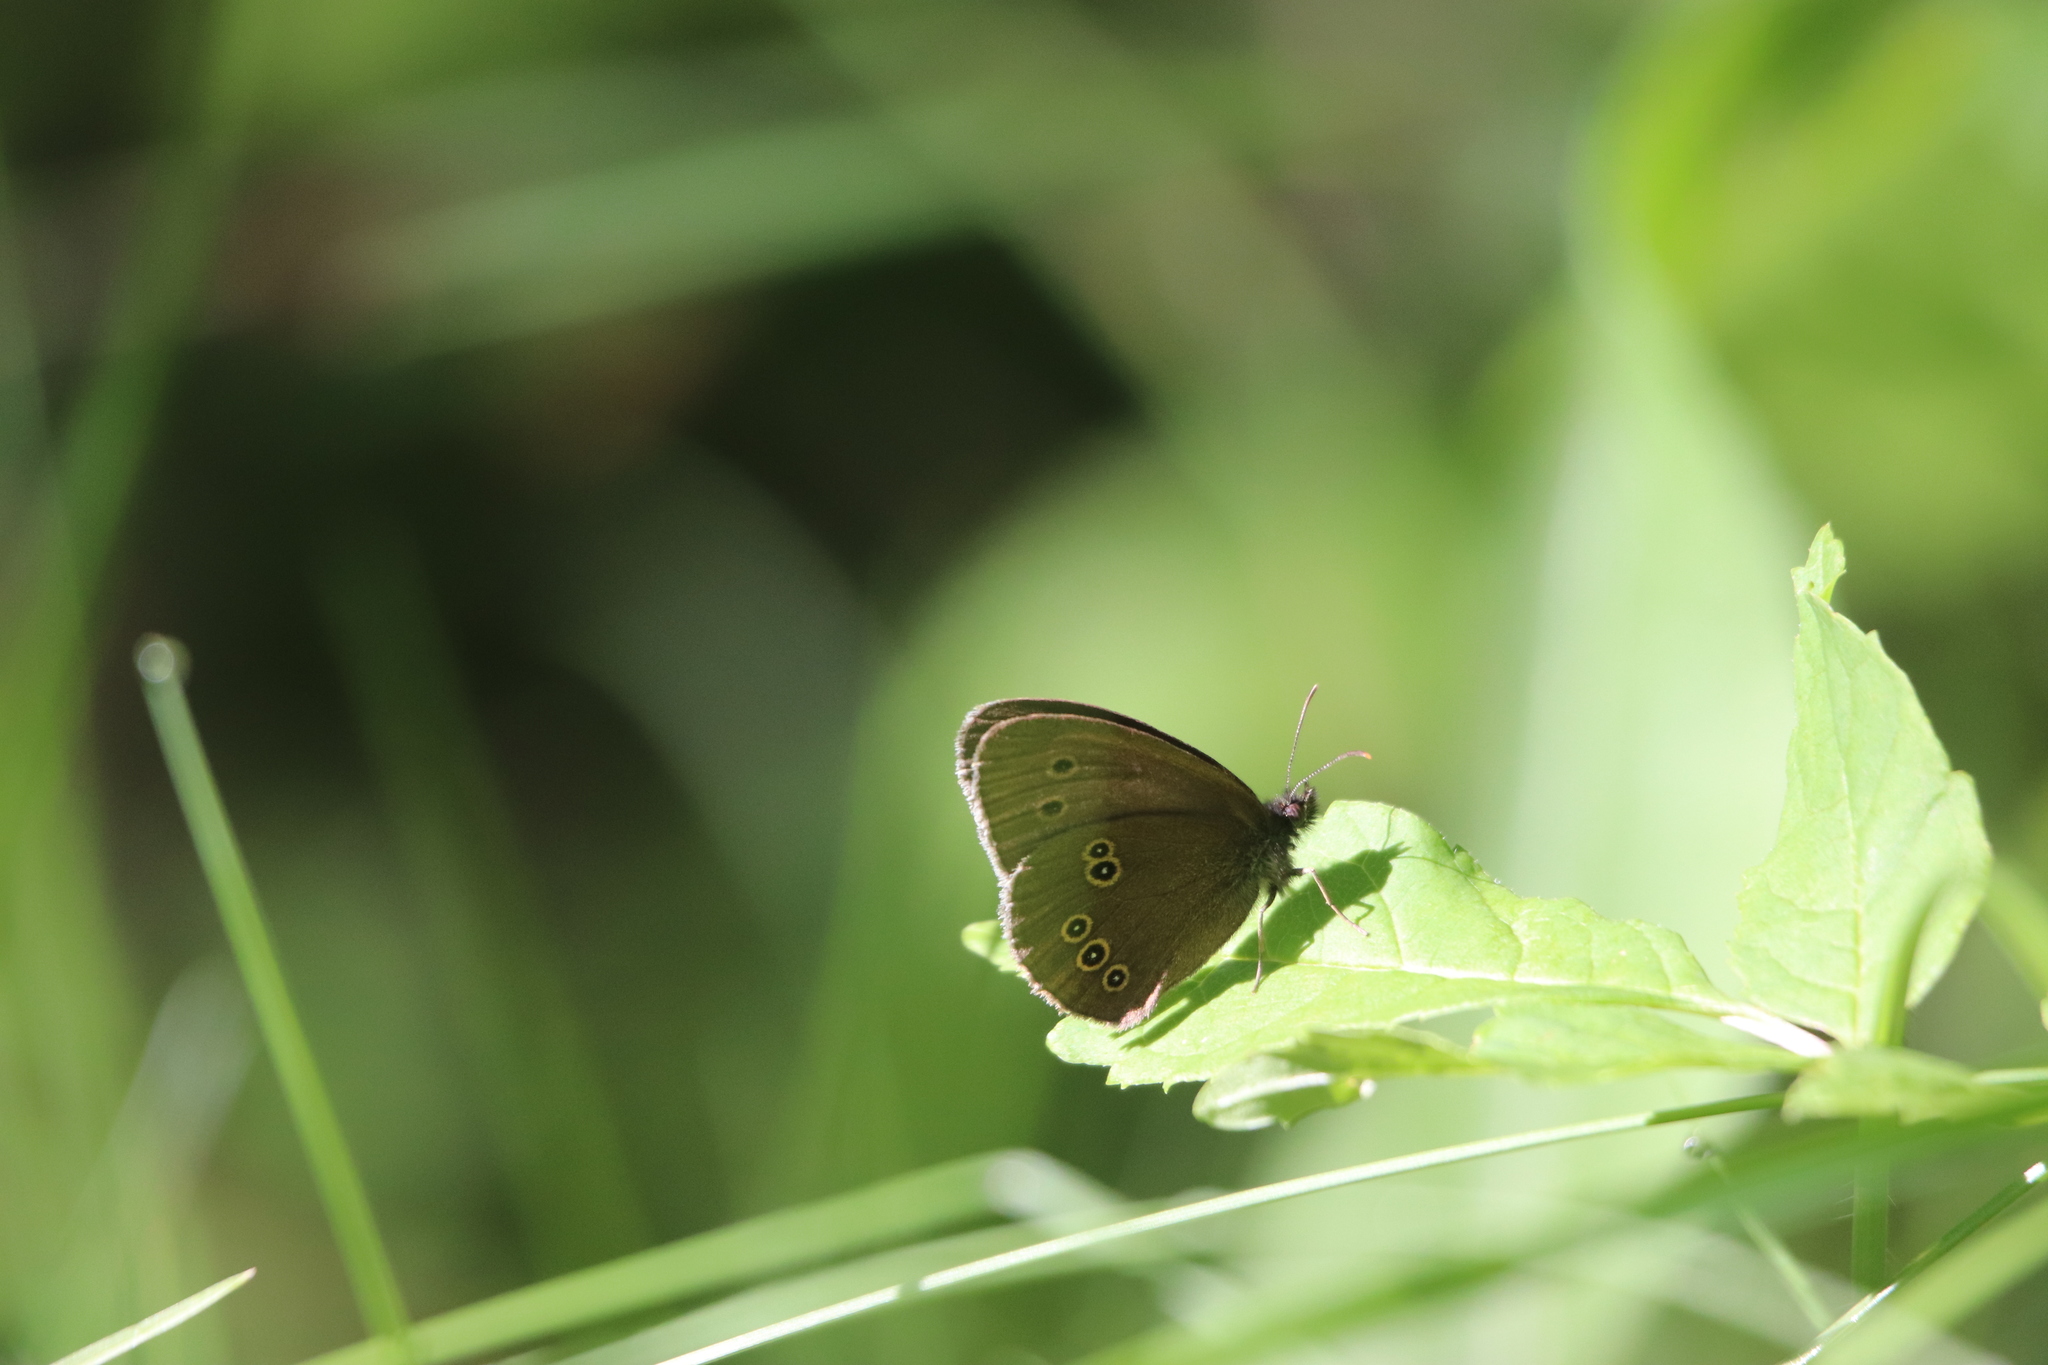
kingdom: Animalia
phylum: Arthropoda
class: Insecta
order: Lepidoptera
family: Nymphalidae
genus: Aphantopus
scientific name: Aphantopus hyperantus
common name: Ringlet
